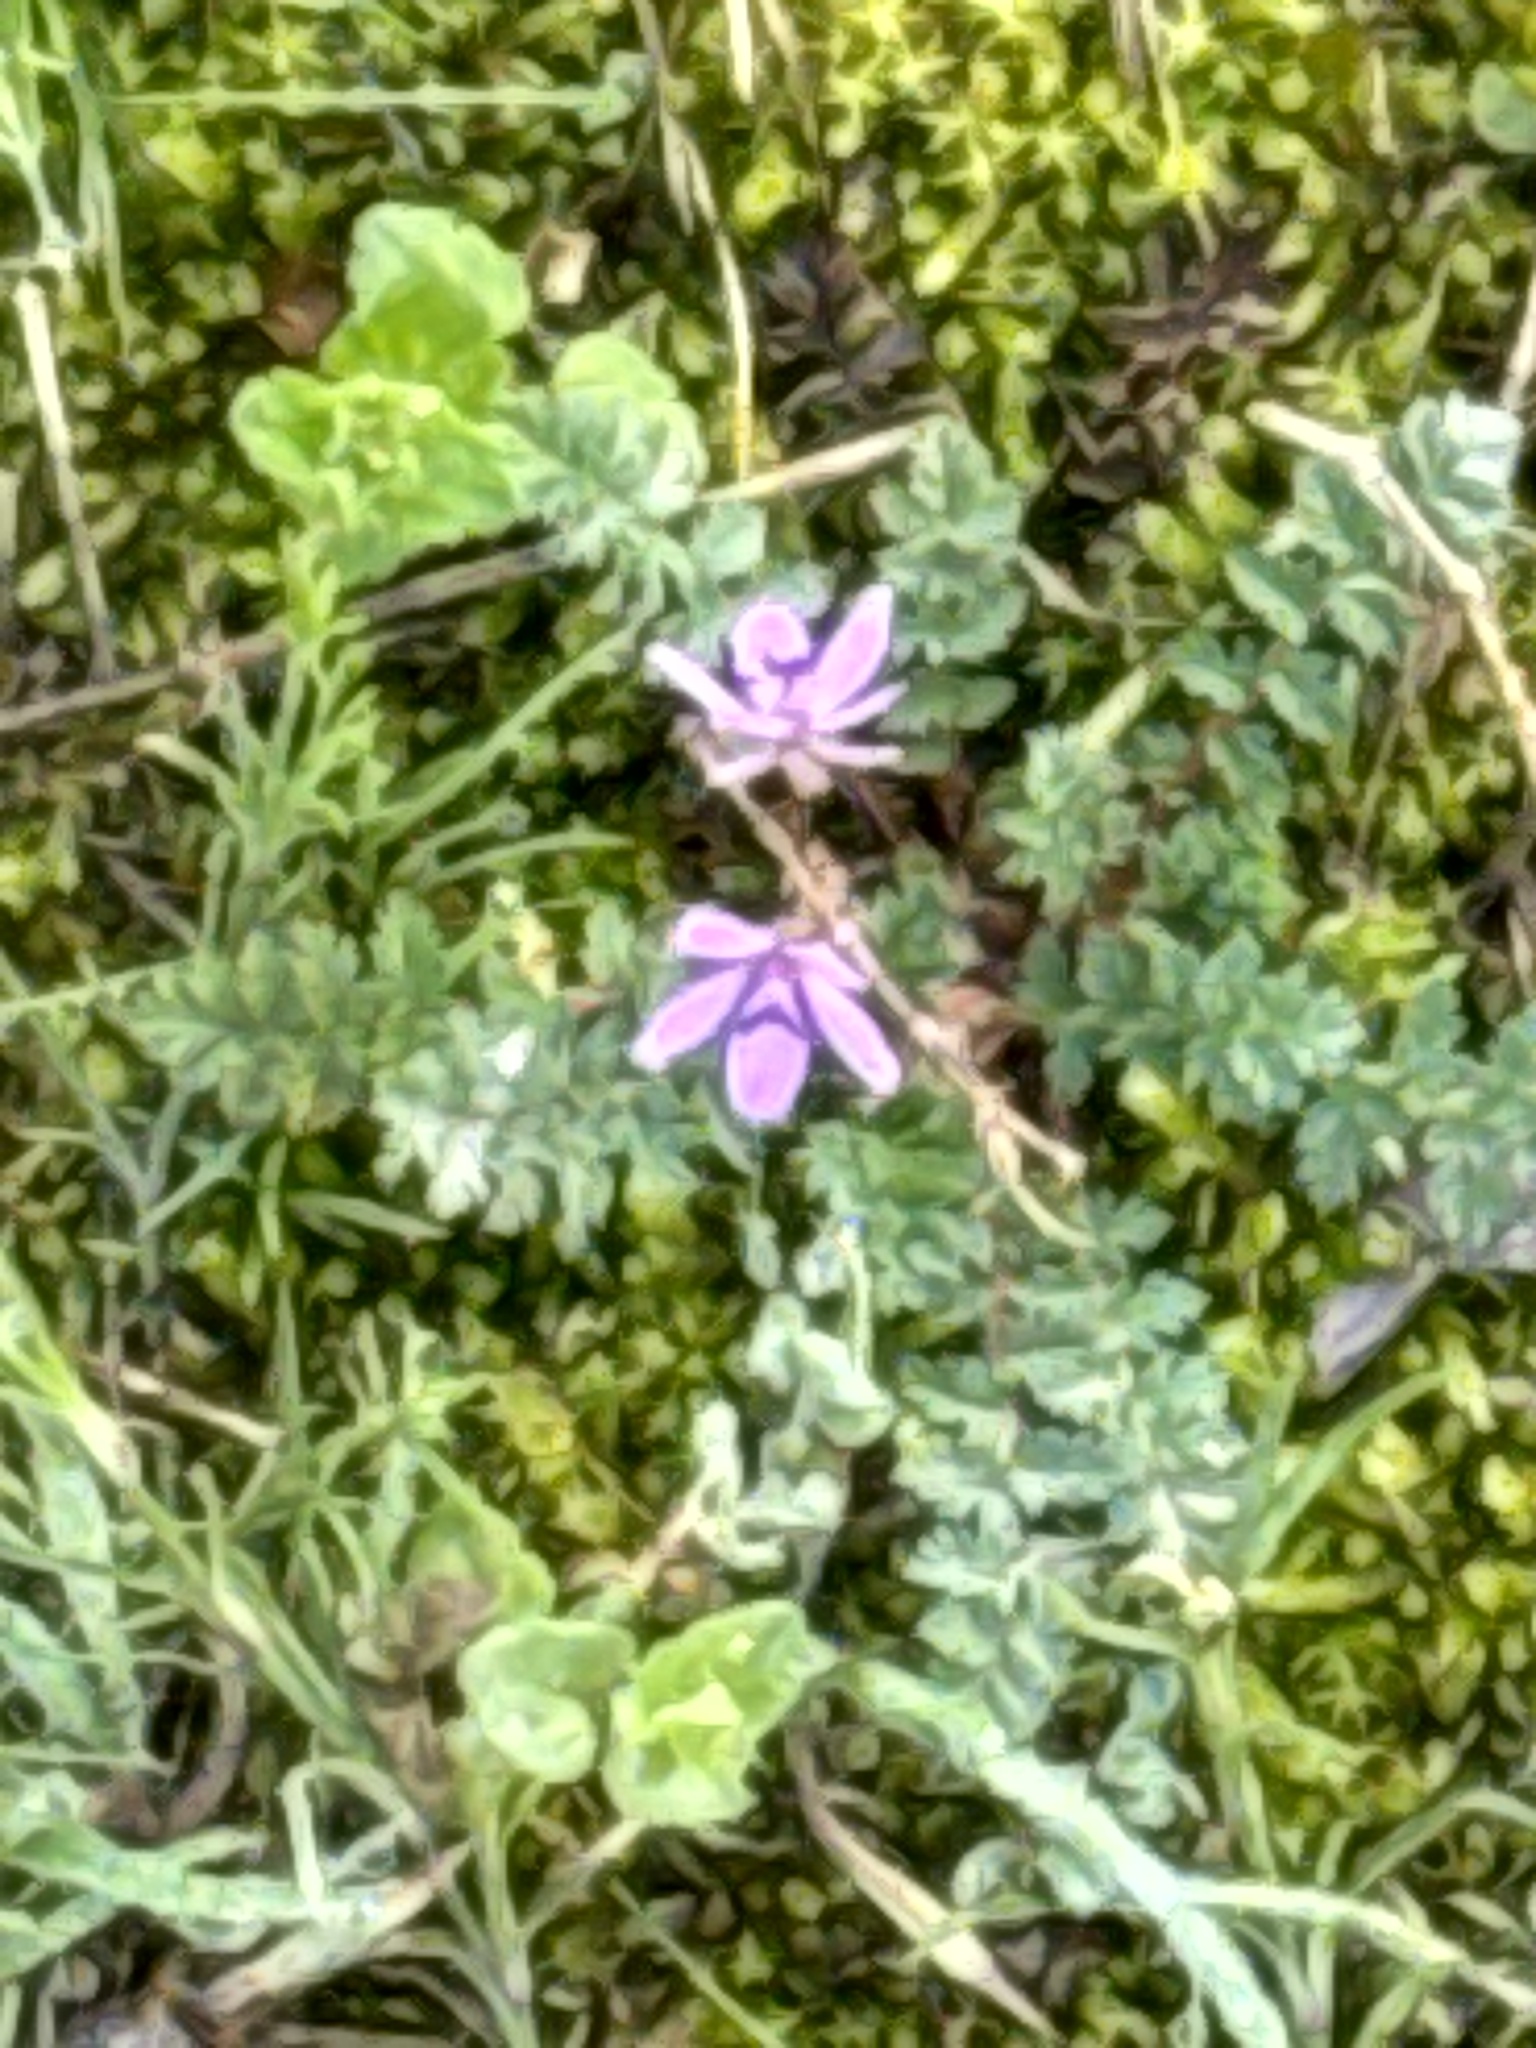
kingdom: Plantae
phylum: Tracheophyta
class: Magnoliopsida
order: Geraniales
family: Geraniaceae
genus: Erodium
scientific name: Erodium cicutarium
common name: Common stork's-bill
